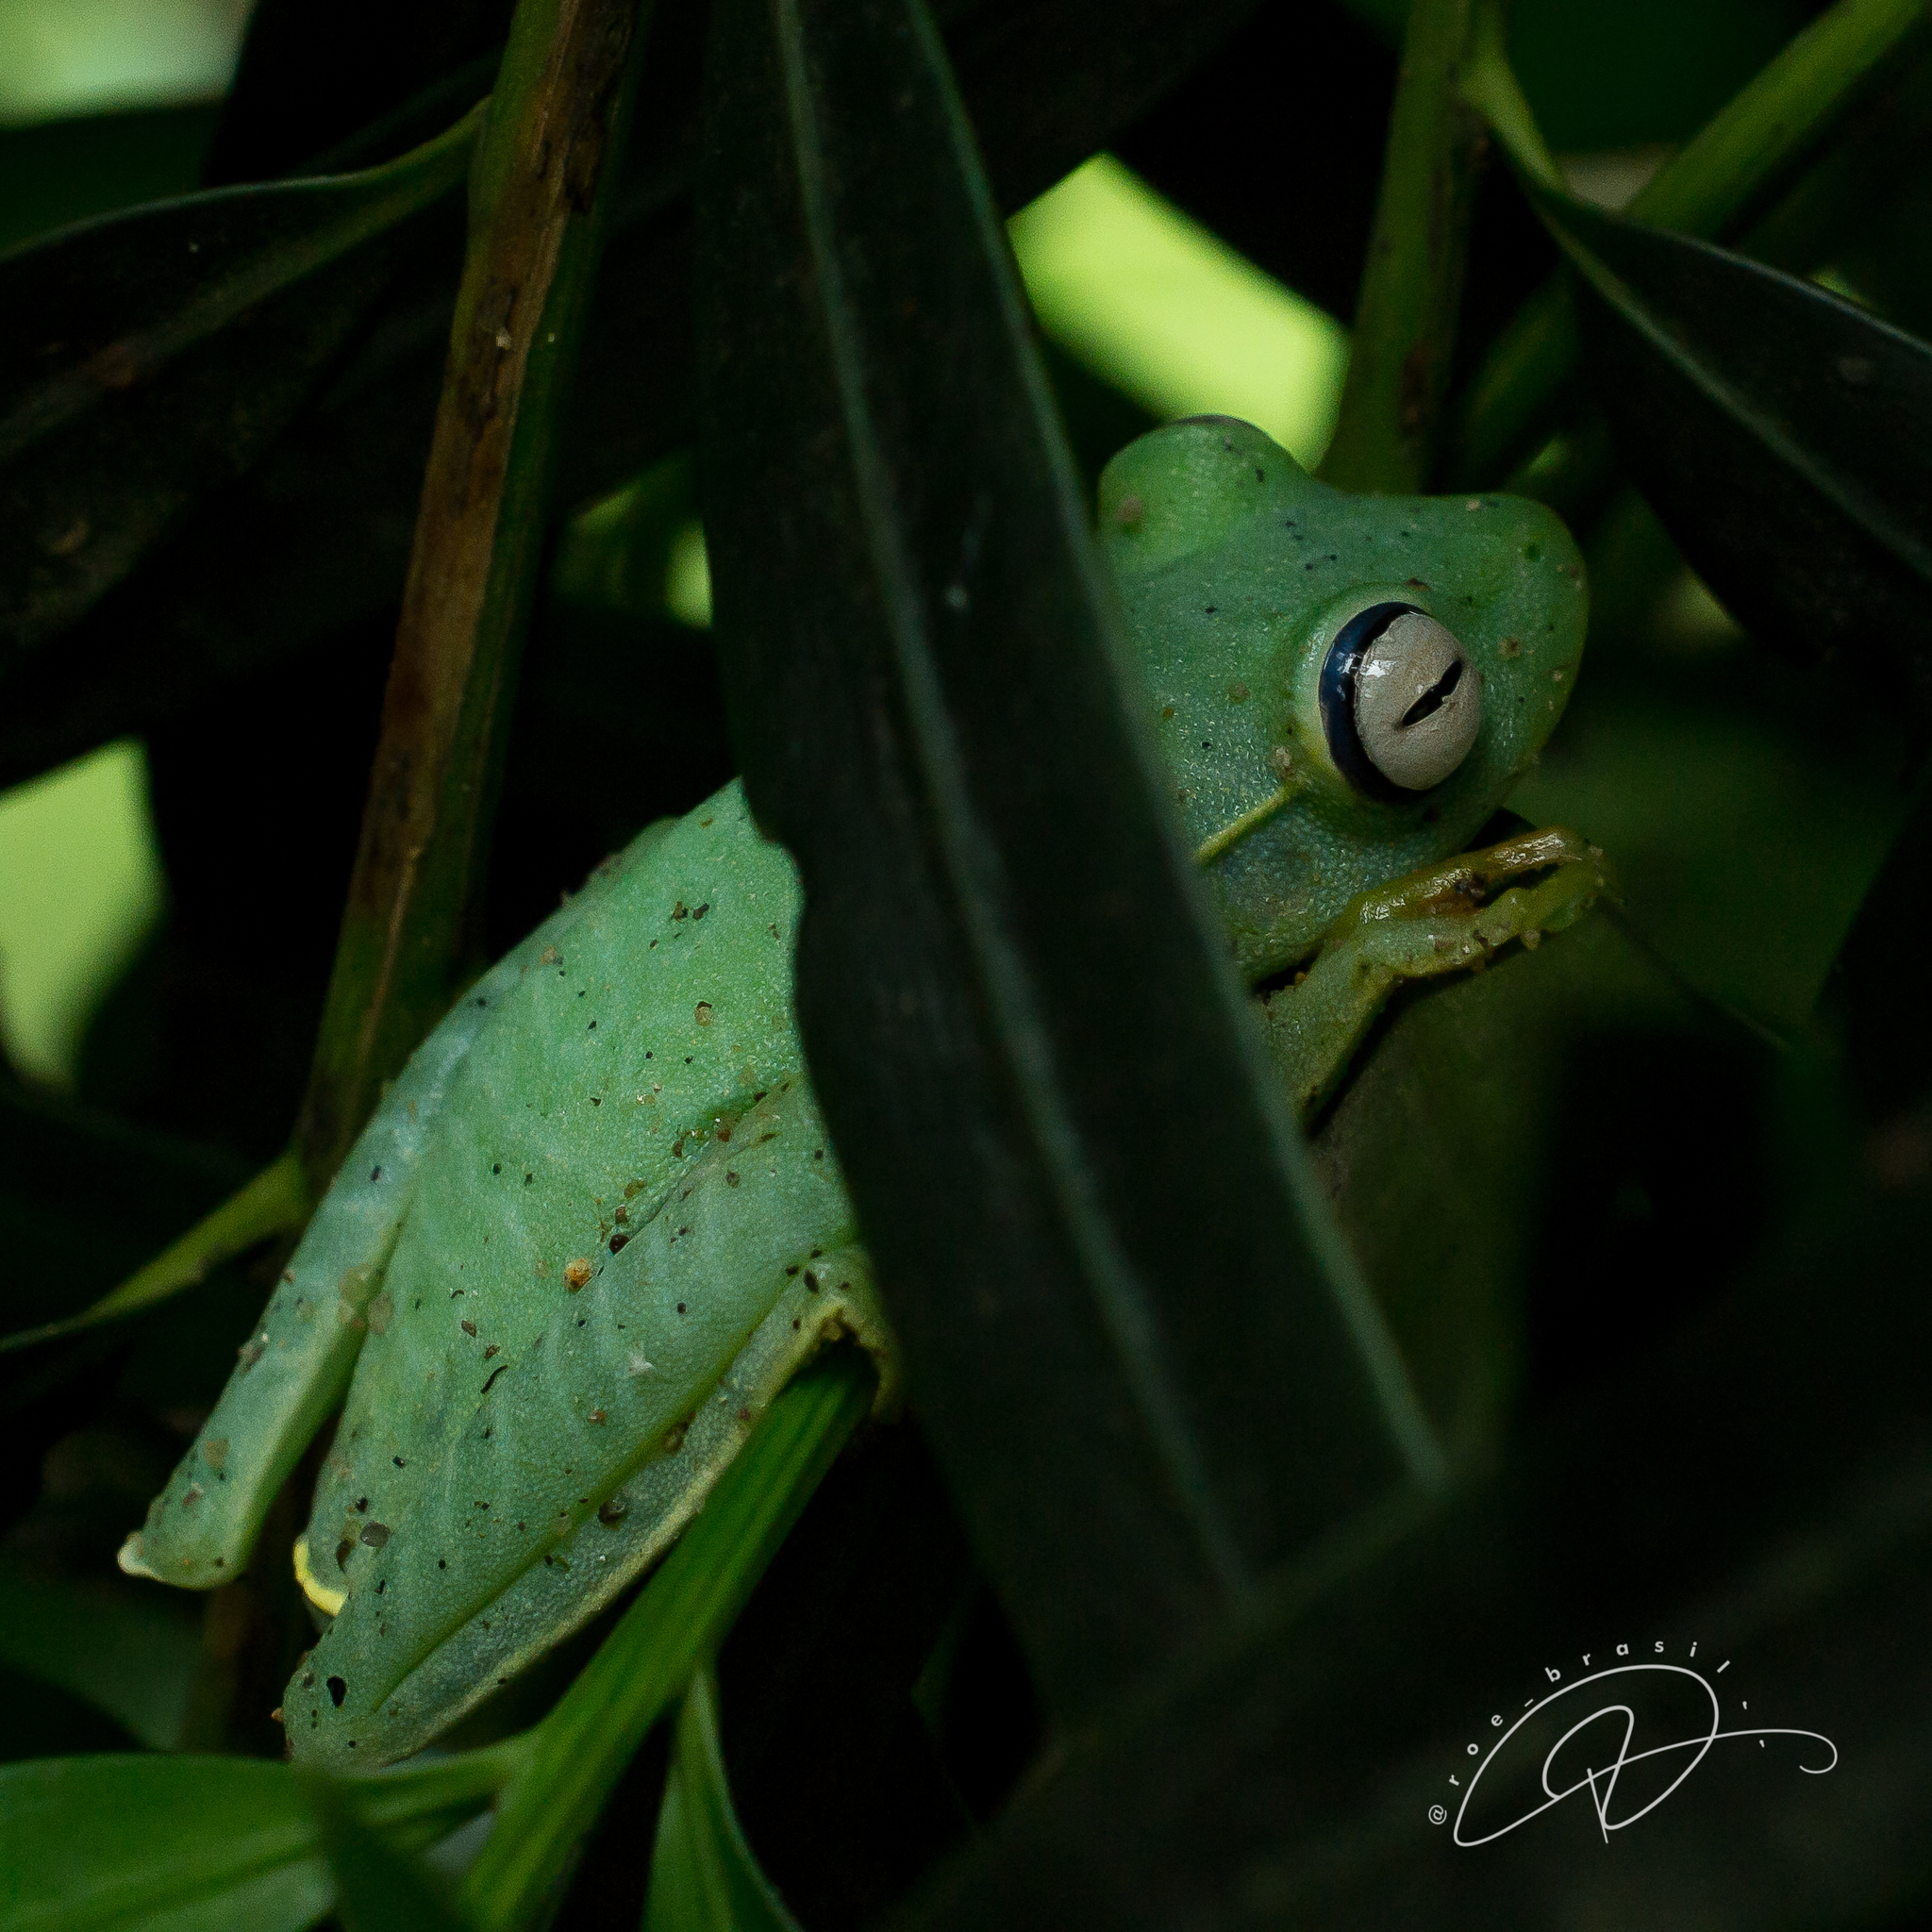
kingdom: Animalia
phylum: Chordata
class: Amphibia
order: Anura
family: Hylidae
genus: Boana
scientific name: Boana albomarginata
